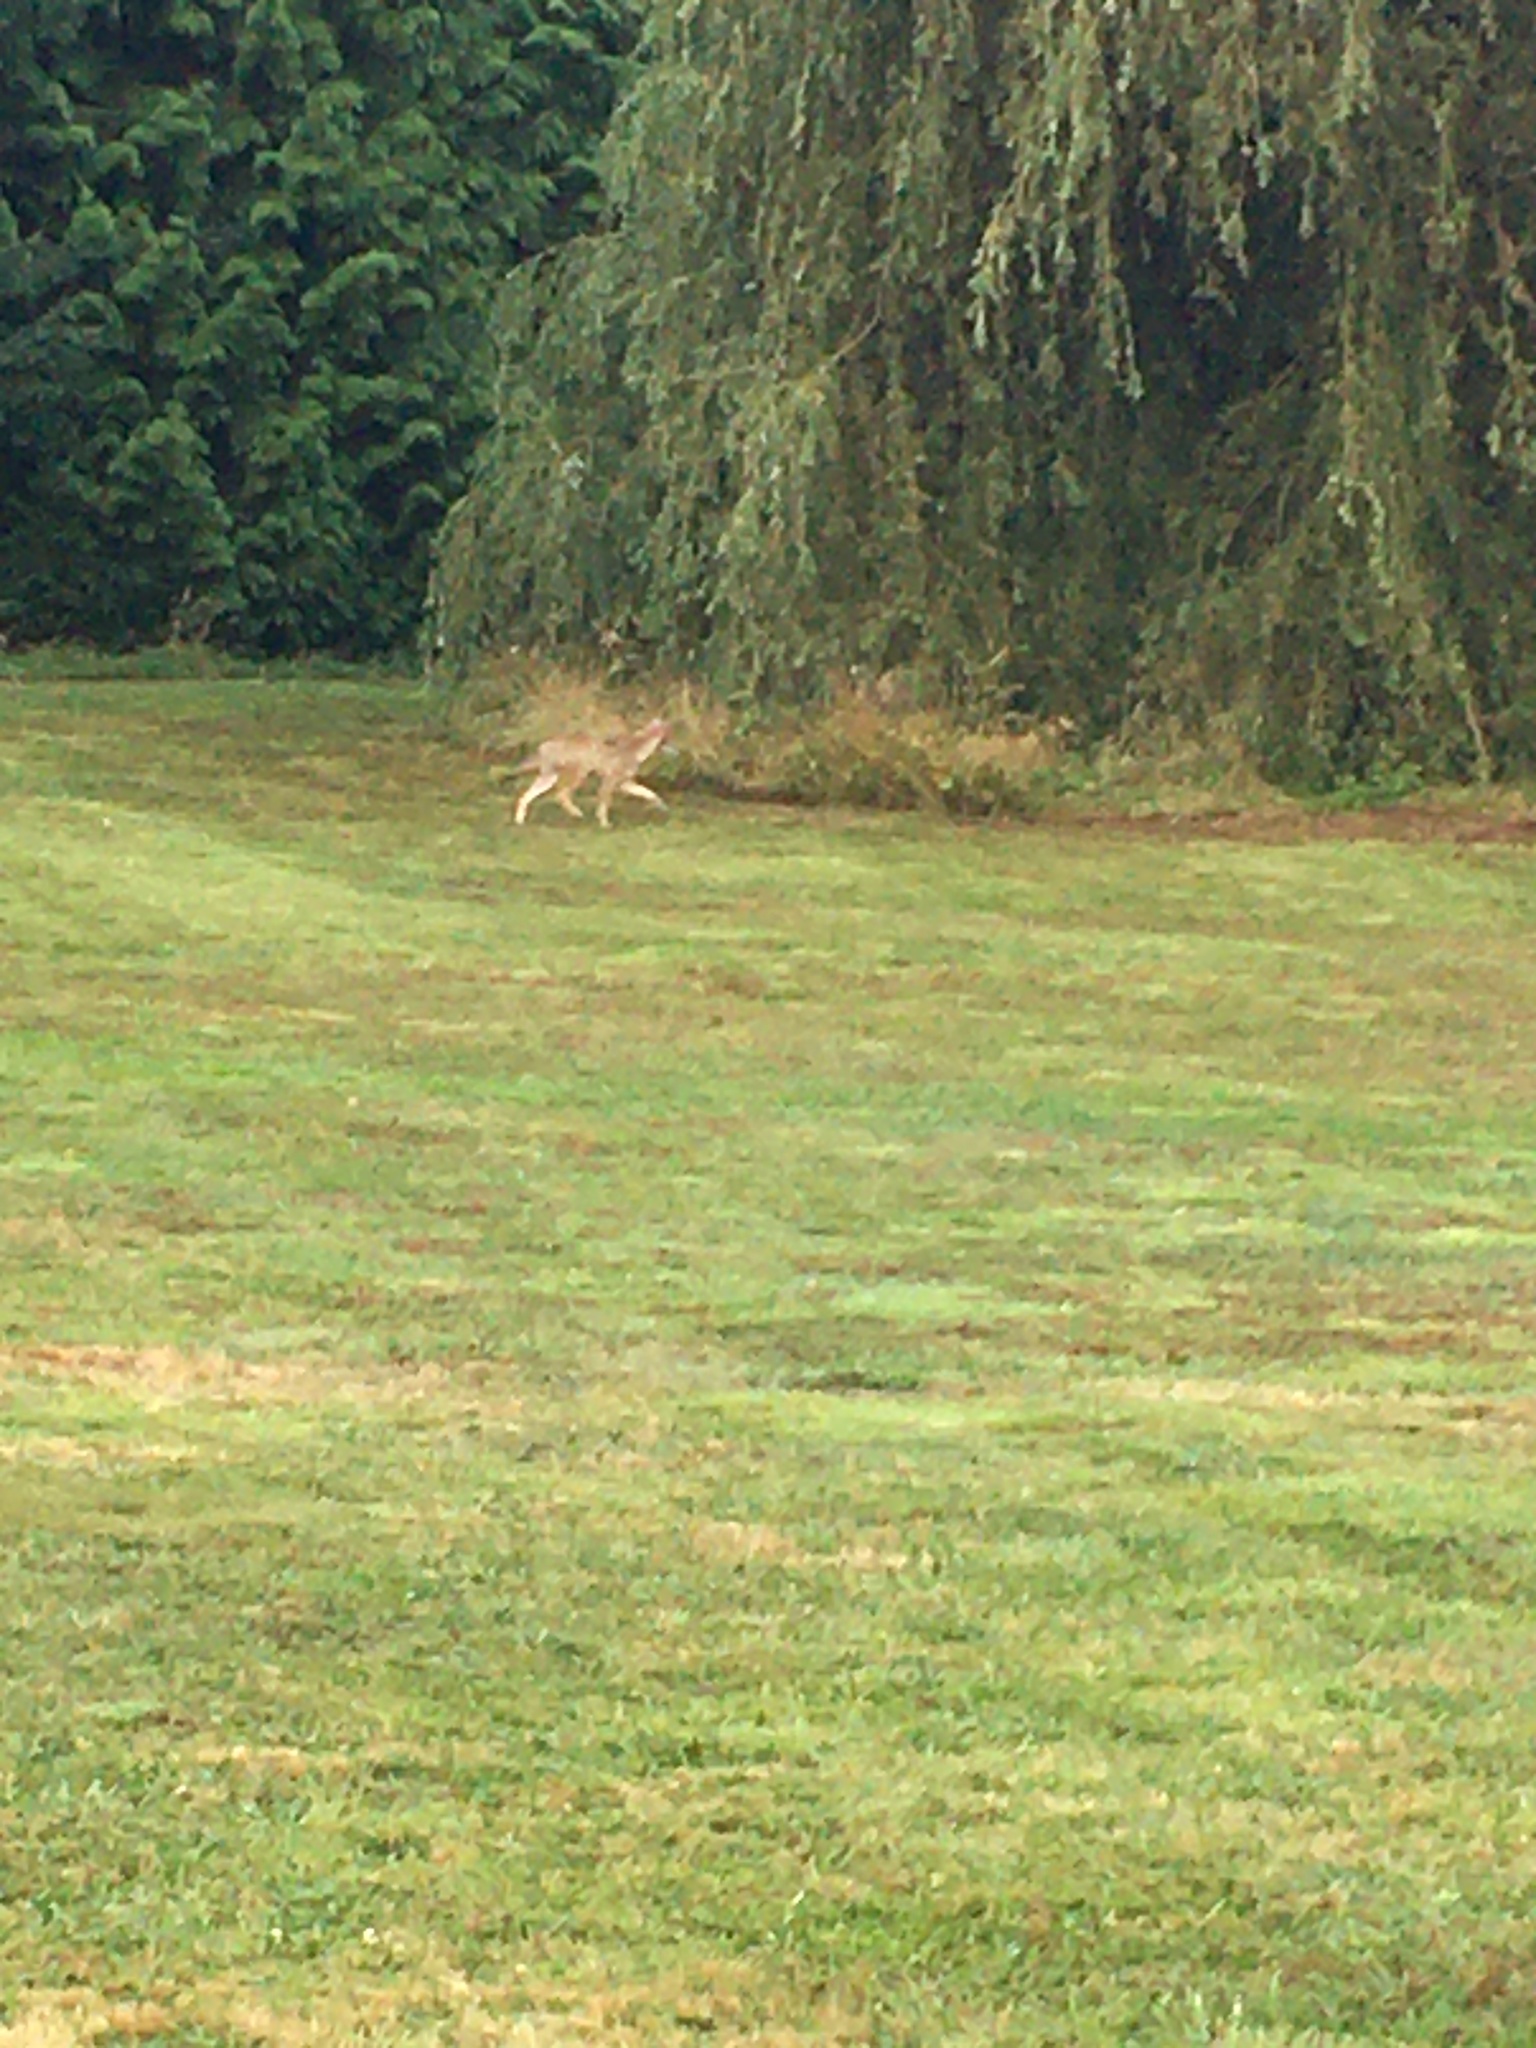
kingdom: Animalia
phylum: Chordata
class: Mammalia
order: Carnivora
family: Canidae
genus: Canis
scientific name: Canis latrans
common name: Coyote
